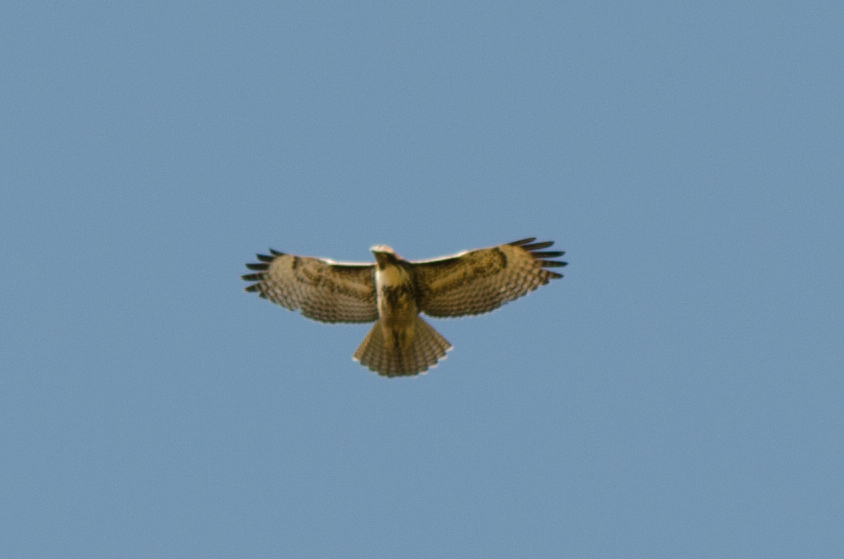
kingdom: Animalia
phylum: Chordata
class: Aves
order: Accipitriformes
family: Accipitridae
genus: Buteo
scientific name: Buteo jamaicensis
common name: Red-tailed hawk
